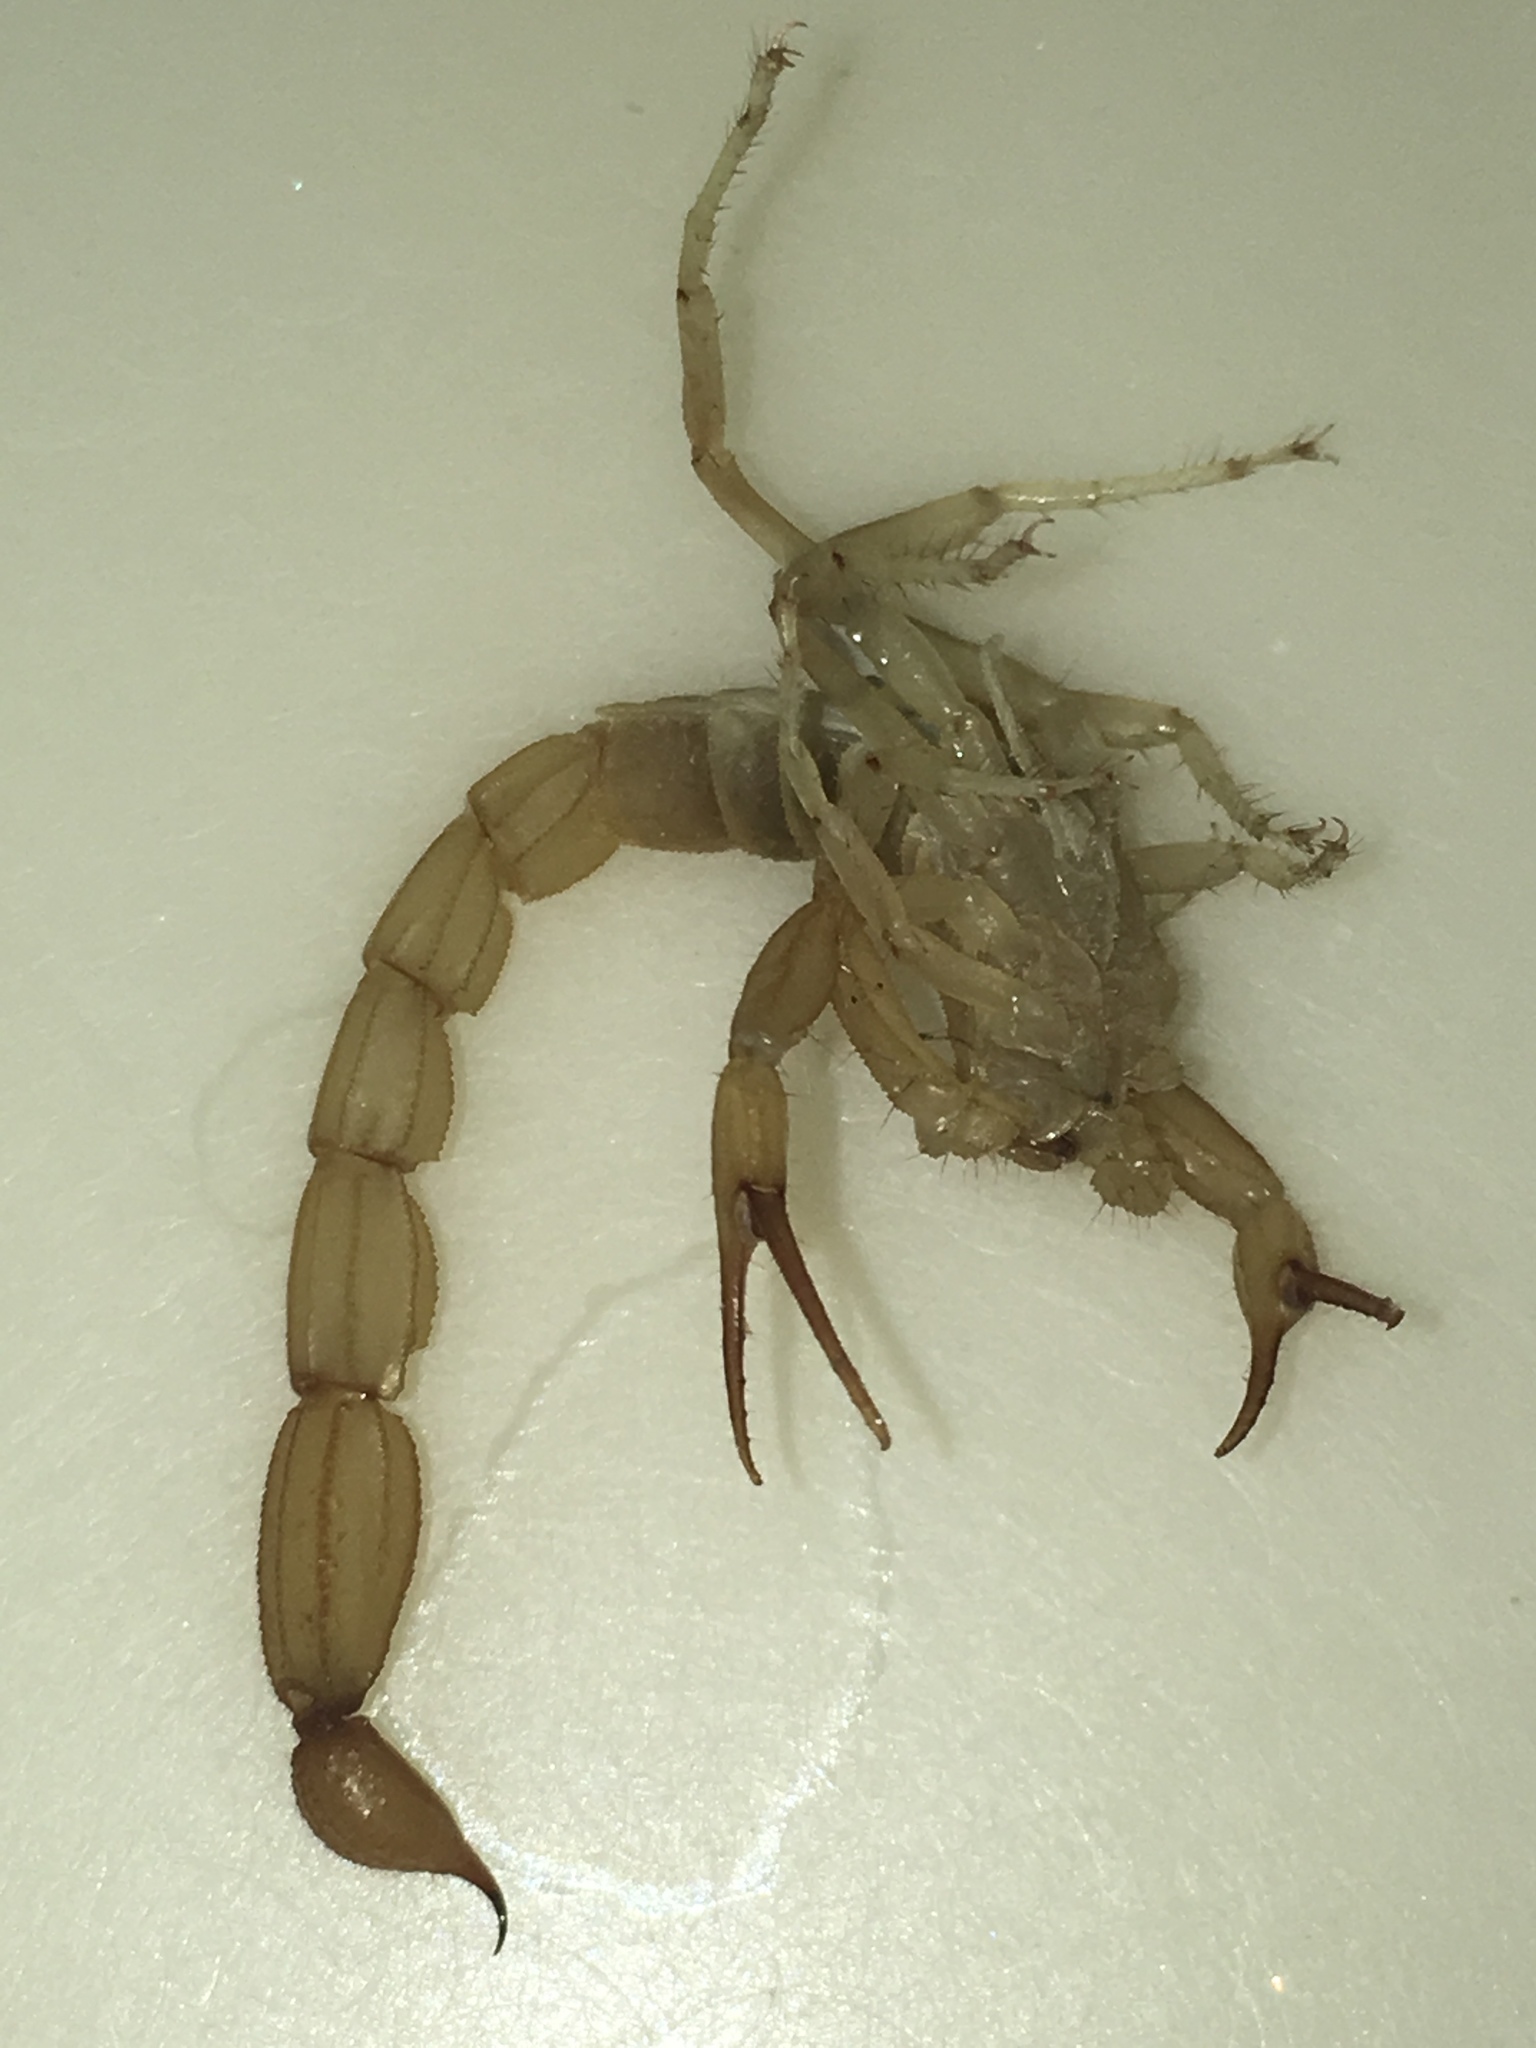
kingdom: Animalia
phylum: Arthropoda
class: Arachnida
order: Scorpiones
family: Vaejovidae
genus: Paravaejovis
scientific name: Paravaejovis waeringi
